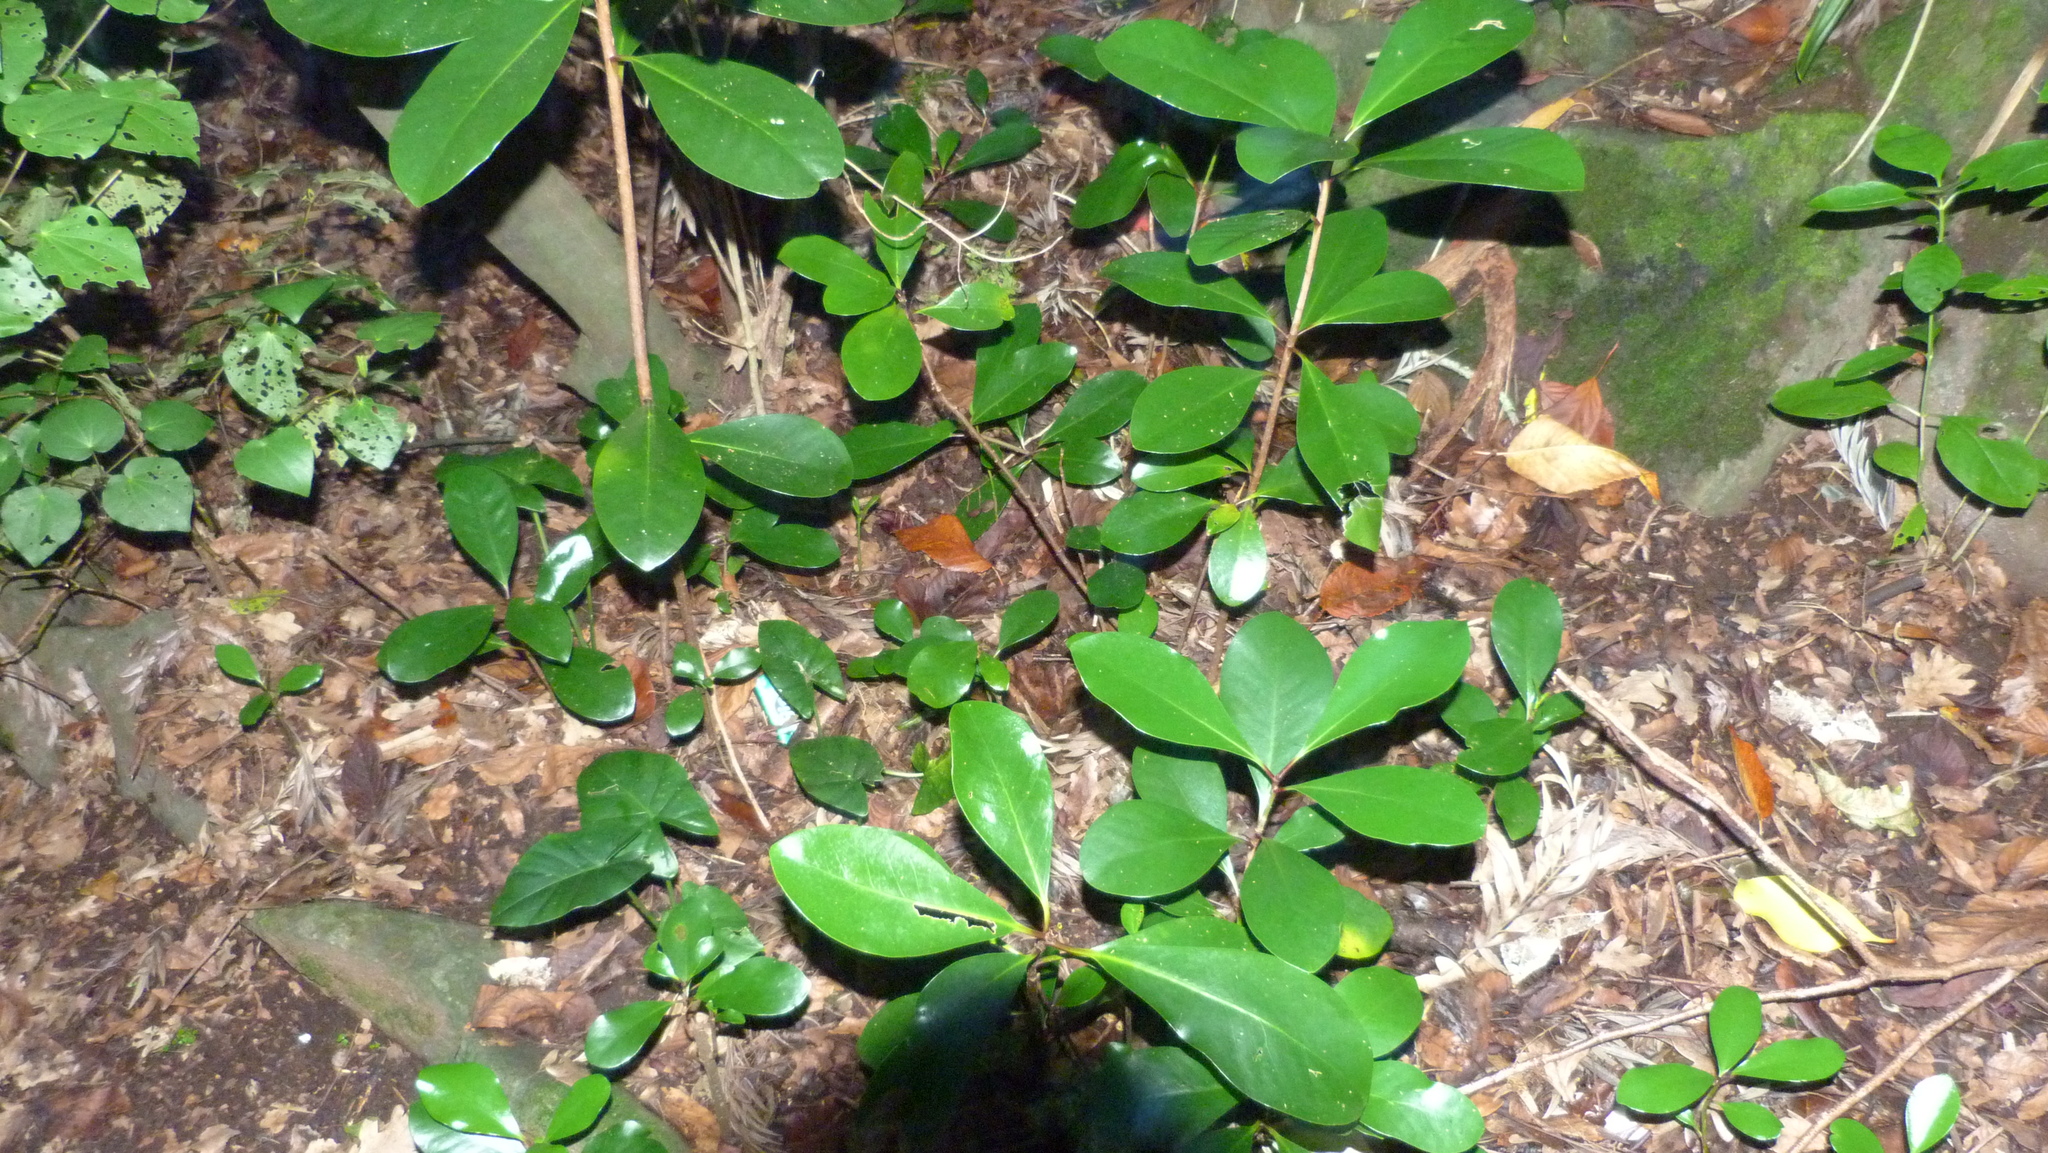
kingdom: Plantae
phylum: Tracheophyta
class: Magnoliopsida
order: Cucurbitales
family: Corynocarpaceae
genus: Corynocarpus
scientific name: Corynocarpus laevigatus
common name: New zealand laurel
